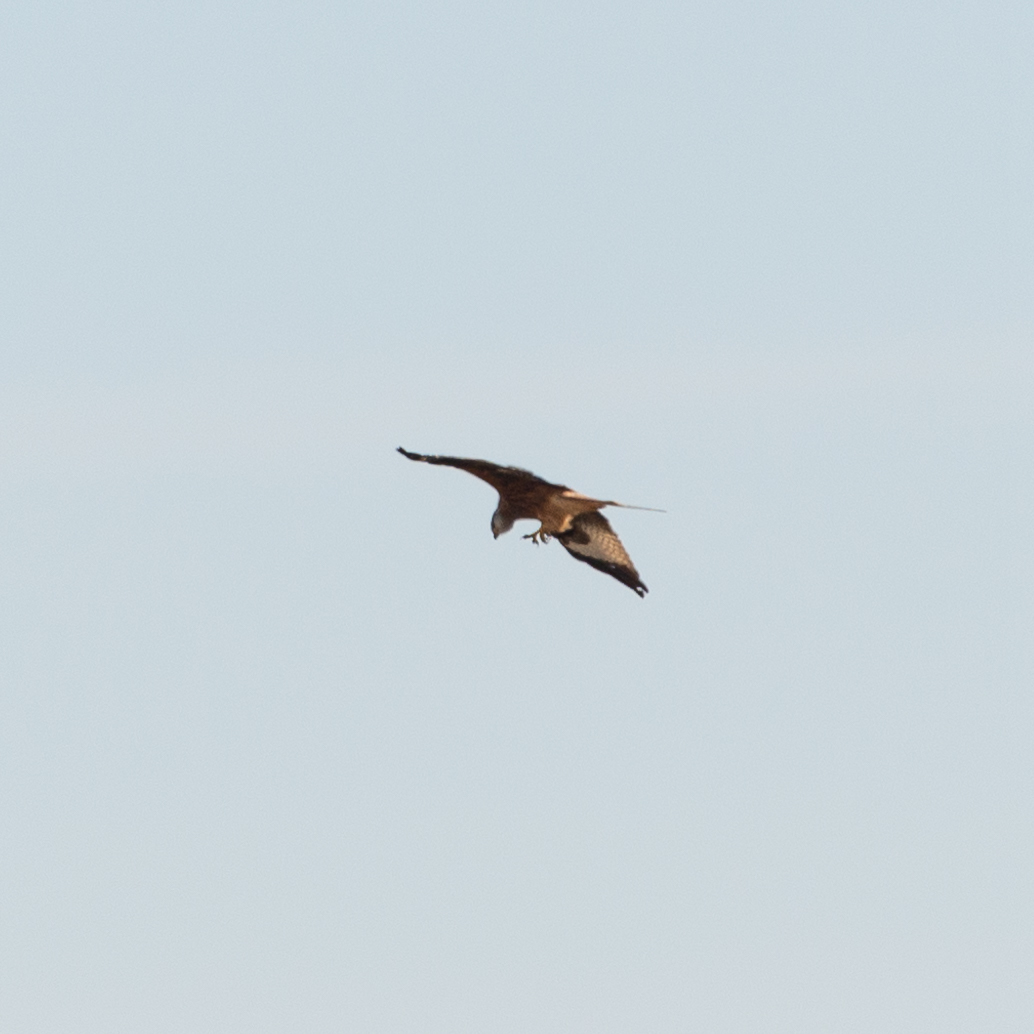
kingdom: Animalia
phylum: Chordata
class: Aves
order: Accipitriformes
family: Accipitridae
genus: Milvus
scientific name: Milvus milvus
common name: Red kite
